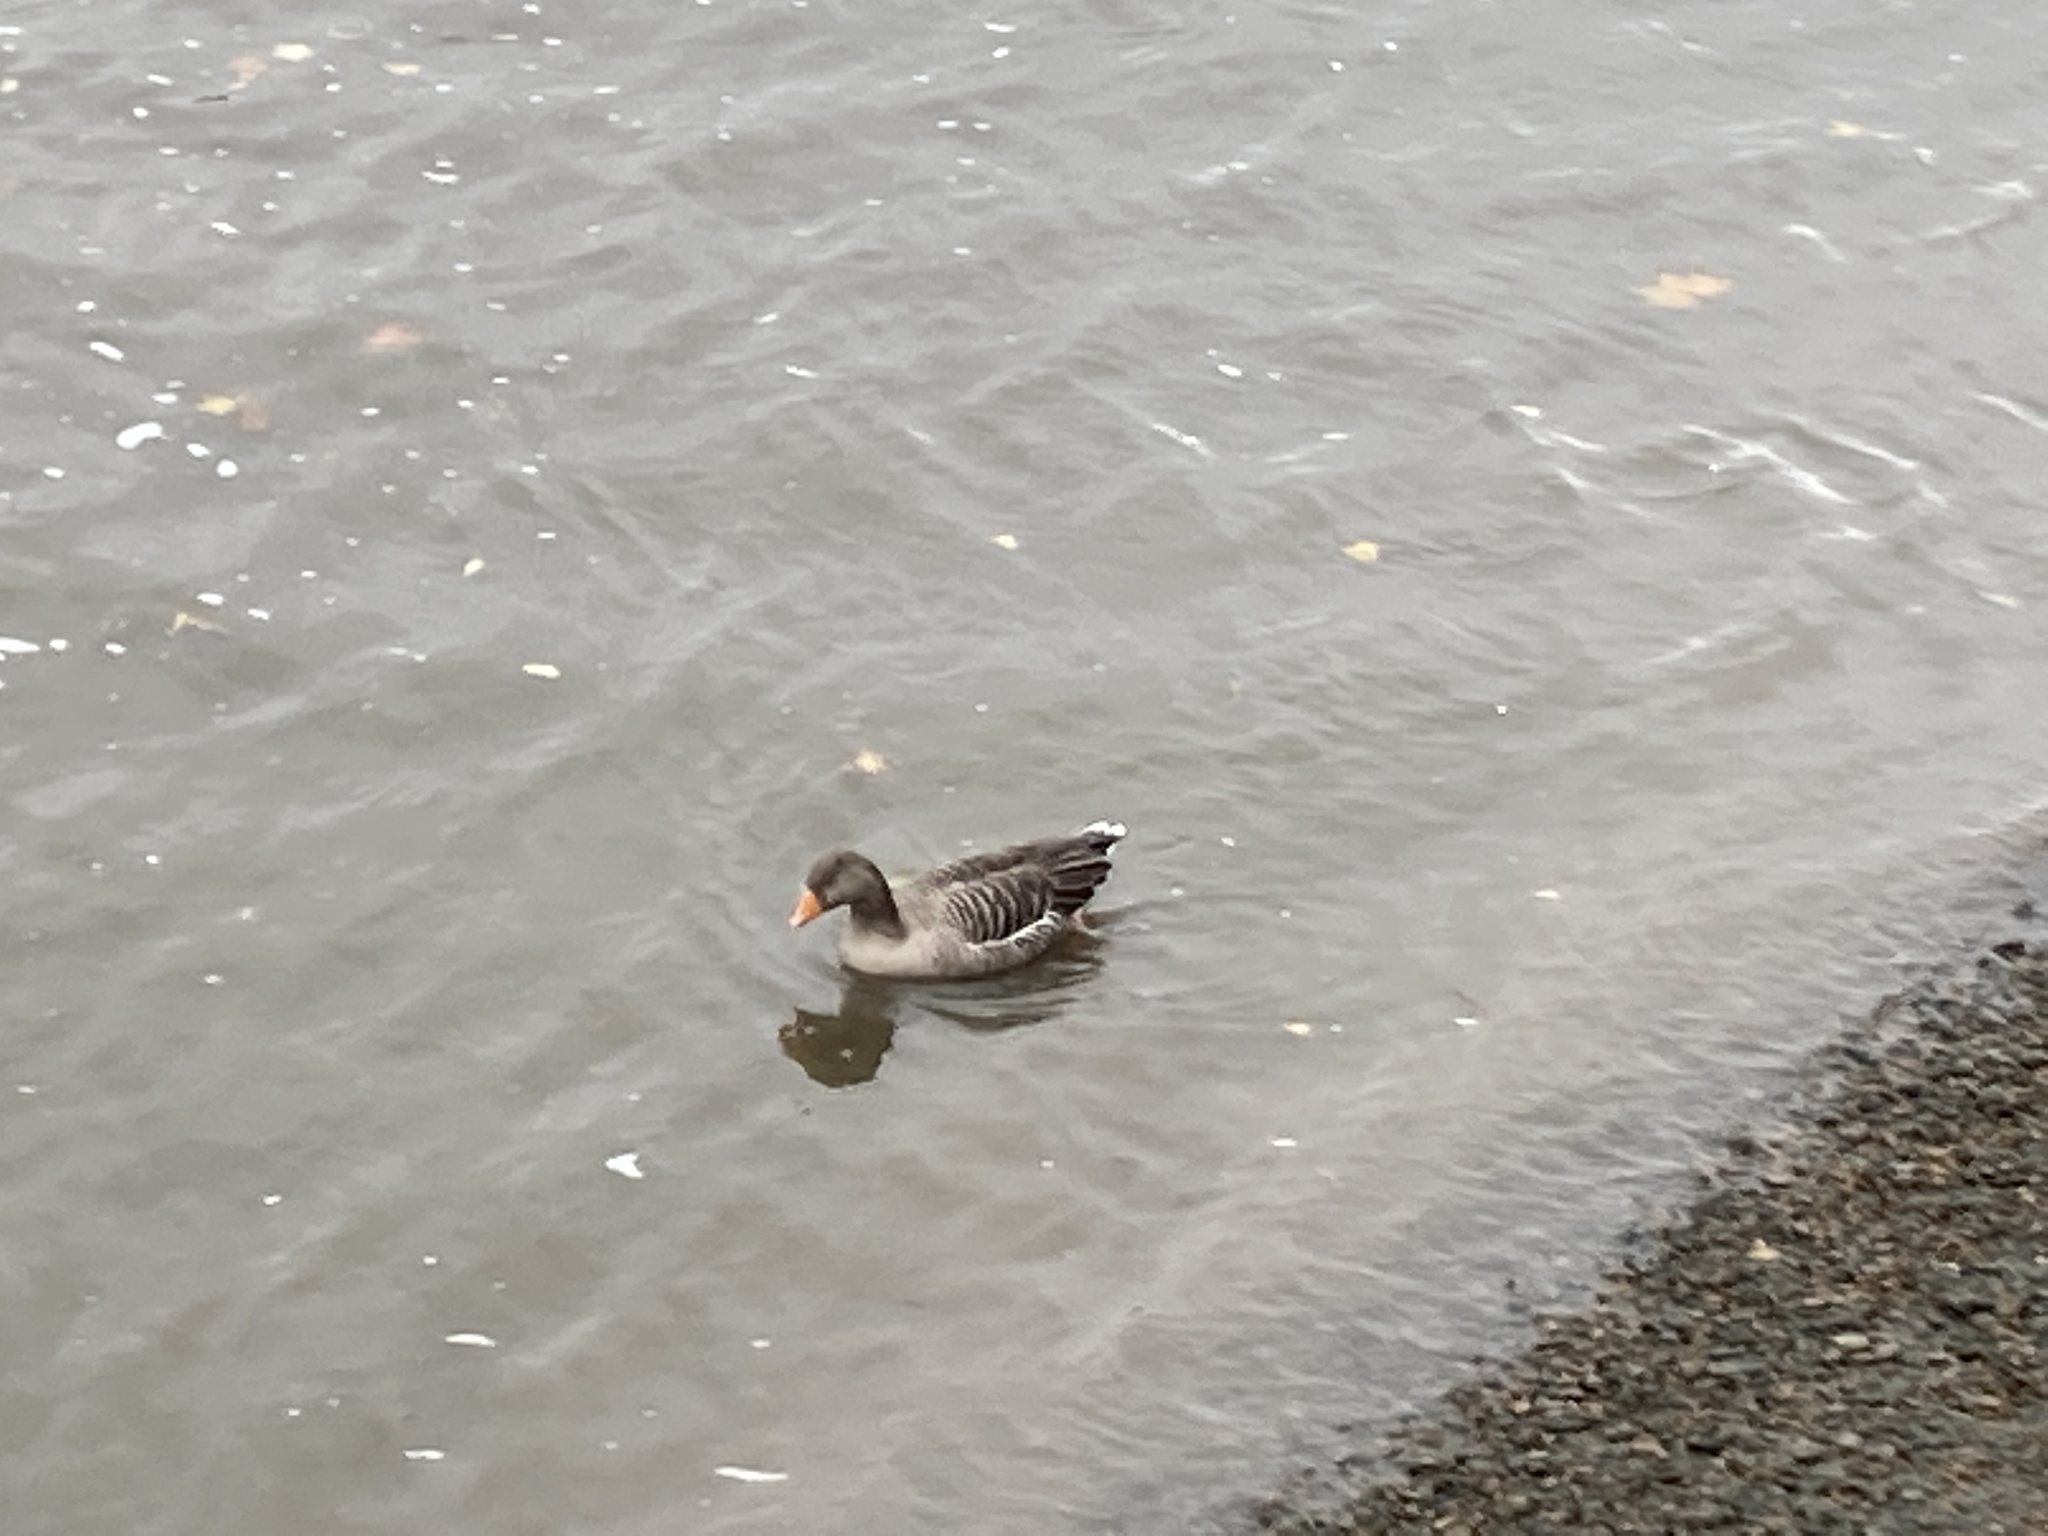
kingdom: Animalia
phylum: Chordata
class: Aves
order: Anseriformes
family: Anatidae
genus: Anser
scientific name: Anser anser
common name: Greylag goose
